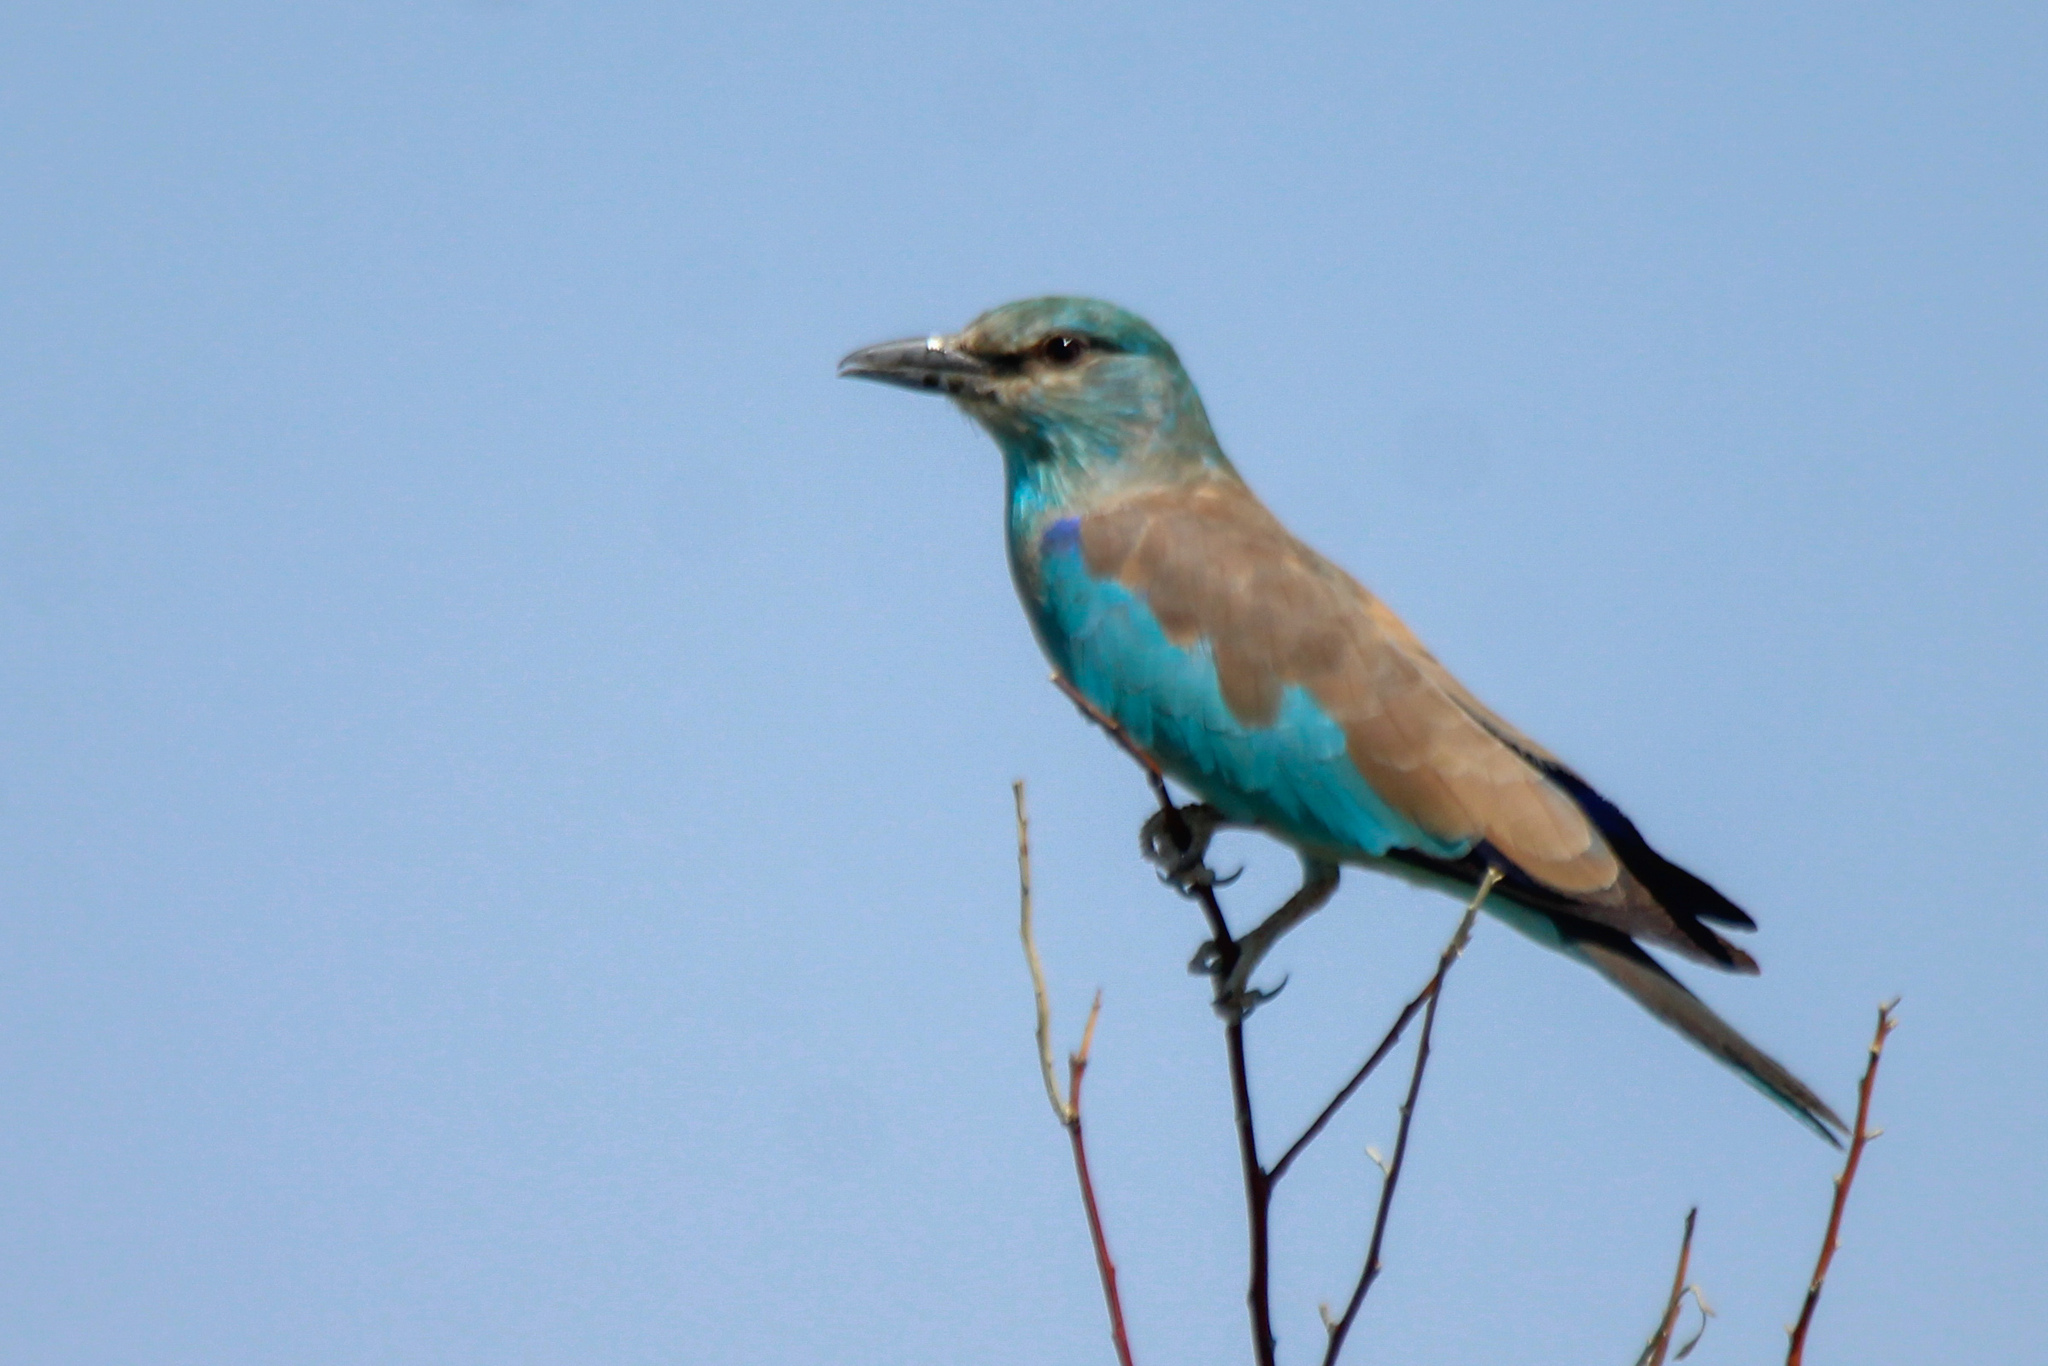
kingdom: Animalia
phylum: Chordata
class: Aves
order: Coraciiformes
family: Coraciidae
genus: Coracias
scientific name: Coracias garrulus
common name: European roller
